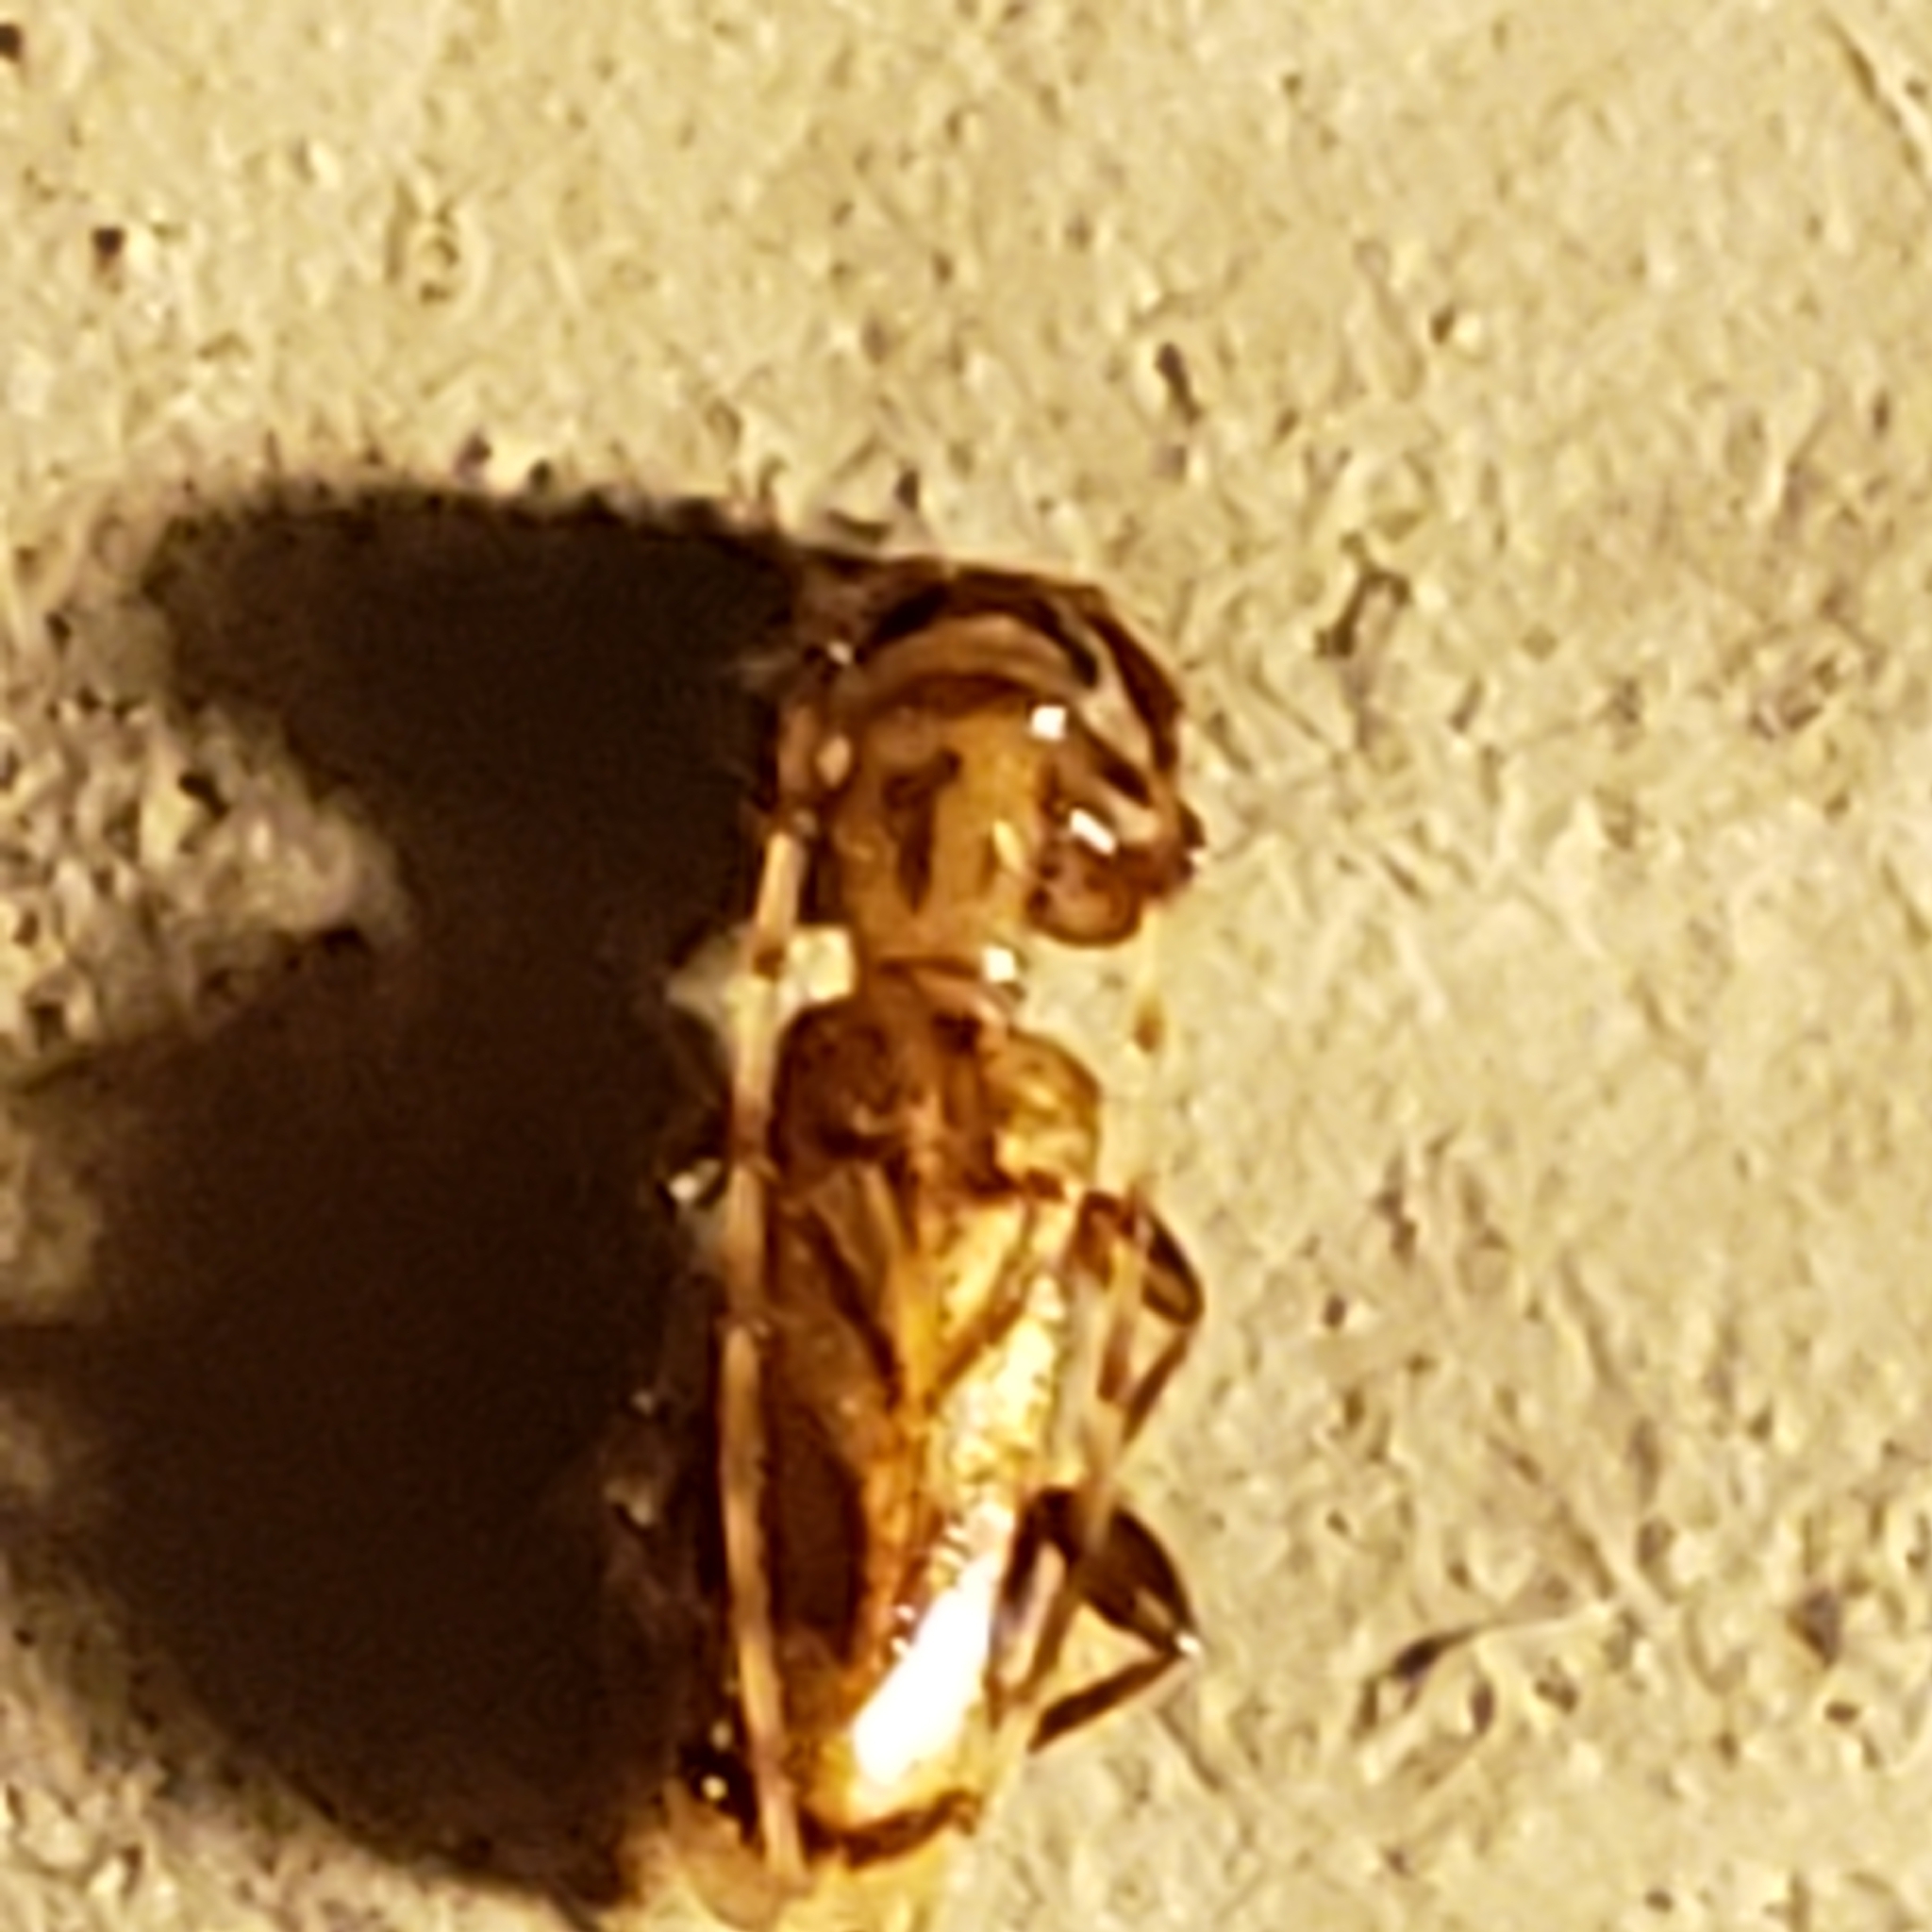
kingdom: Animalia
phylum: Arthropoda
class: Insecta
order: Coleoptera
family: Cerambycidae
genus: Obrium
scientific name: Obrium maculatum
